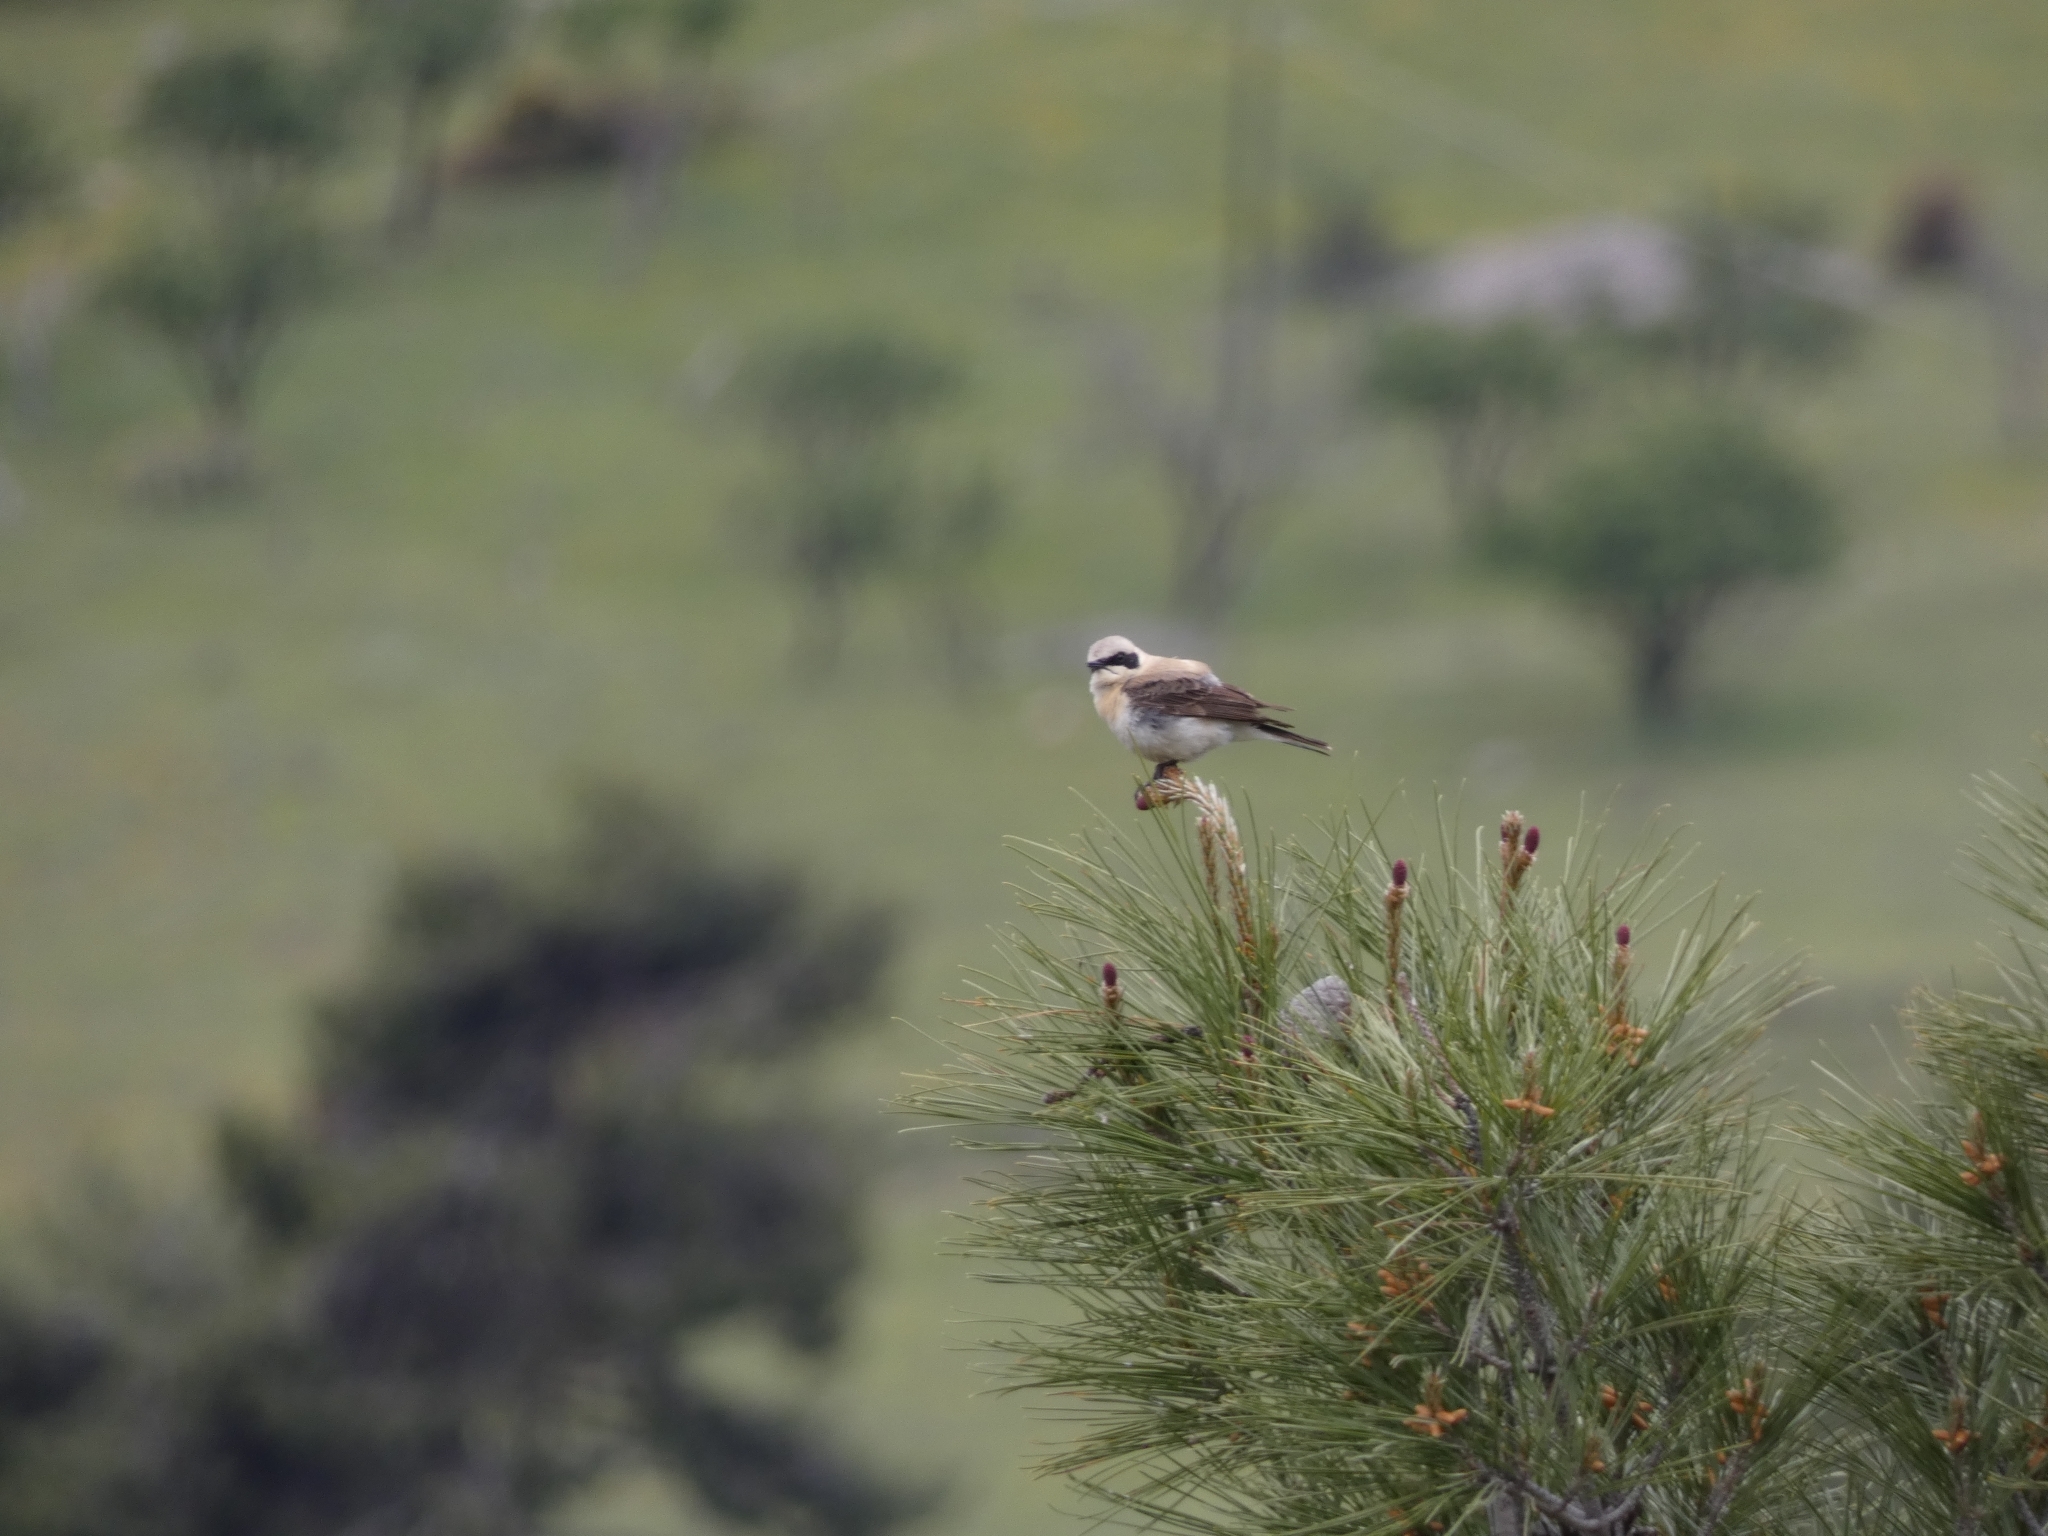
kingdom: Animalia
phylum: Chordata
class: Aves
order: Passeriformes
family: Muscicapidae
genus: Oenanthe
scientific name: Oenanthe hispanica
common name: Black-eared wheatear
